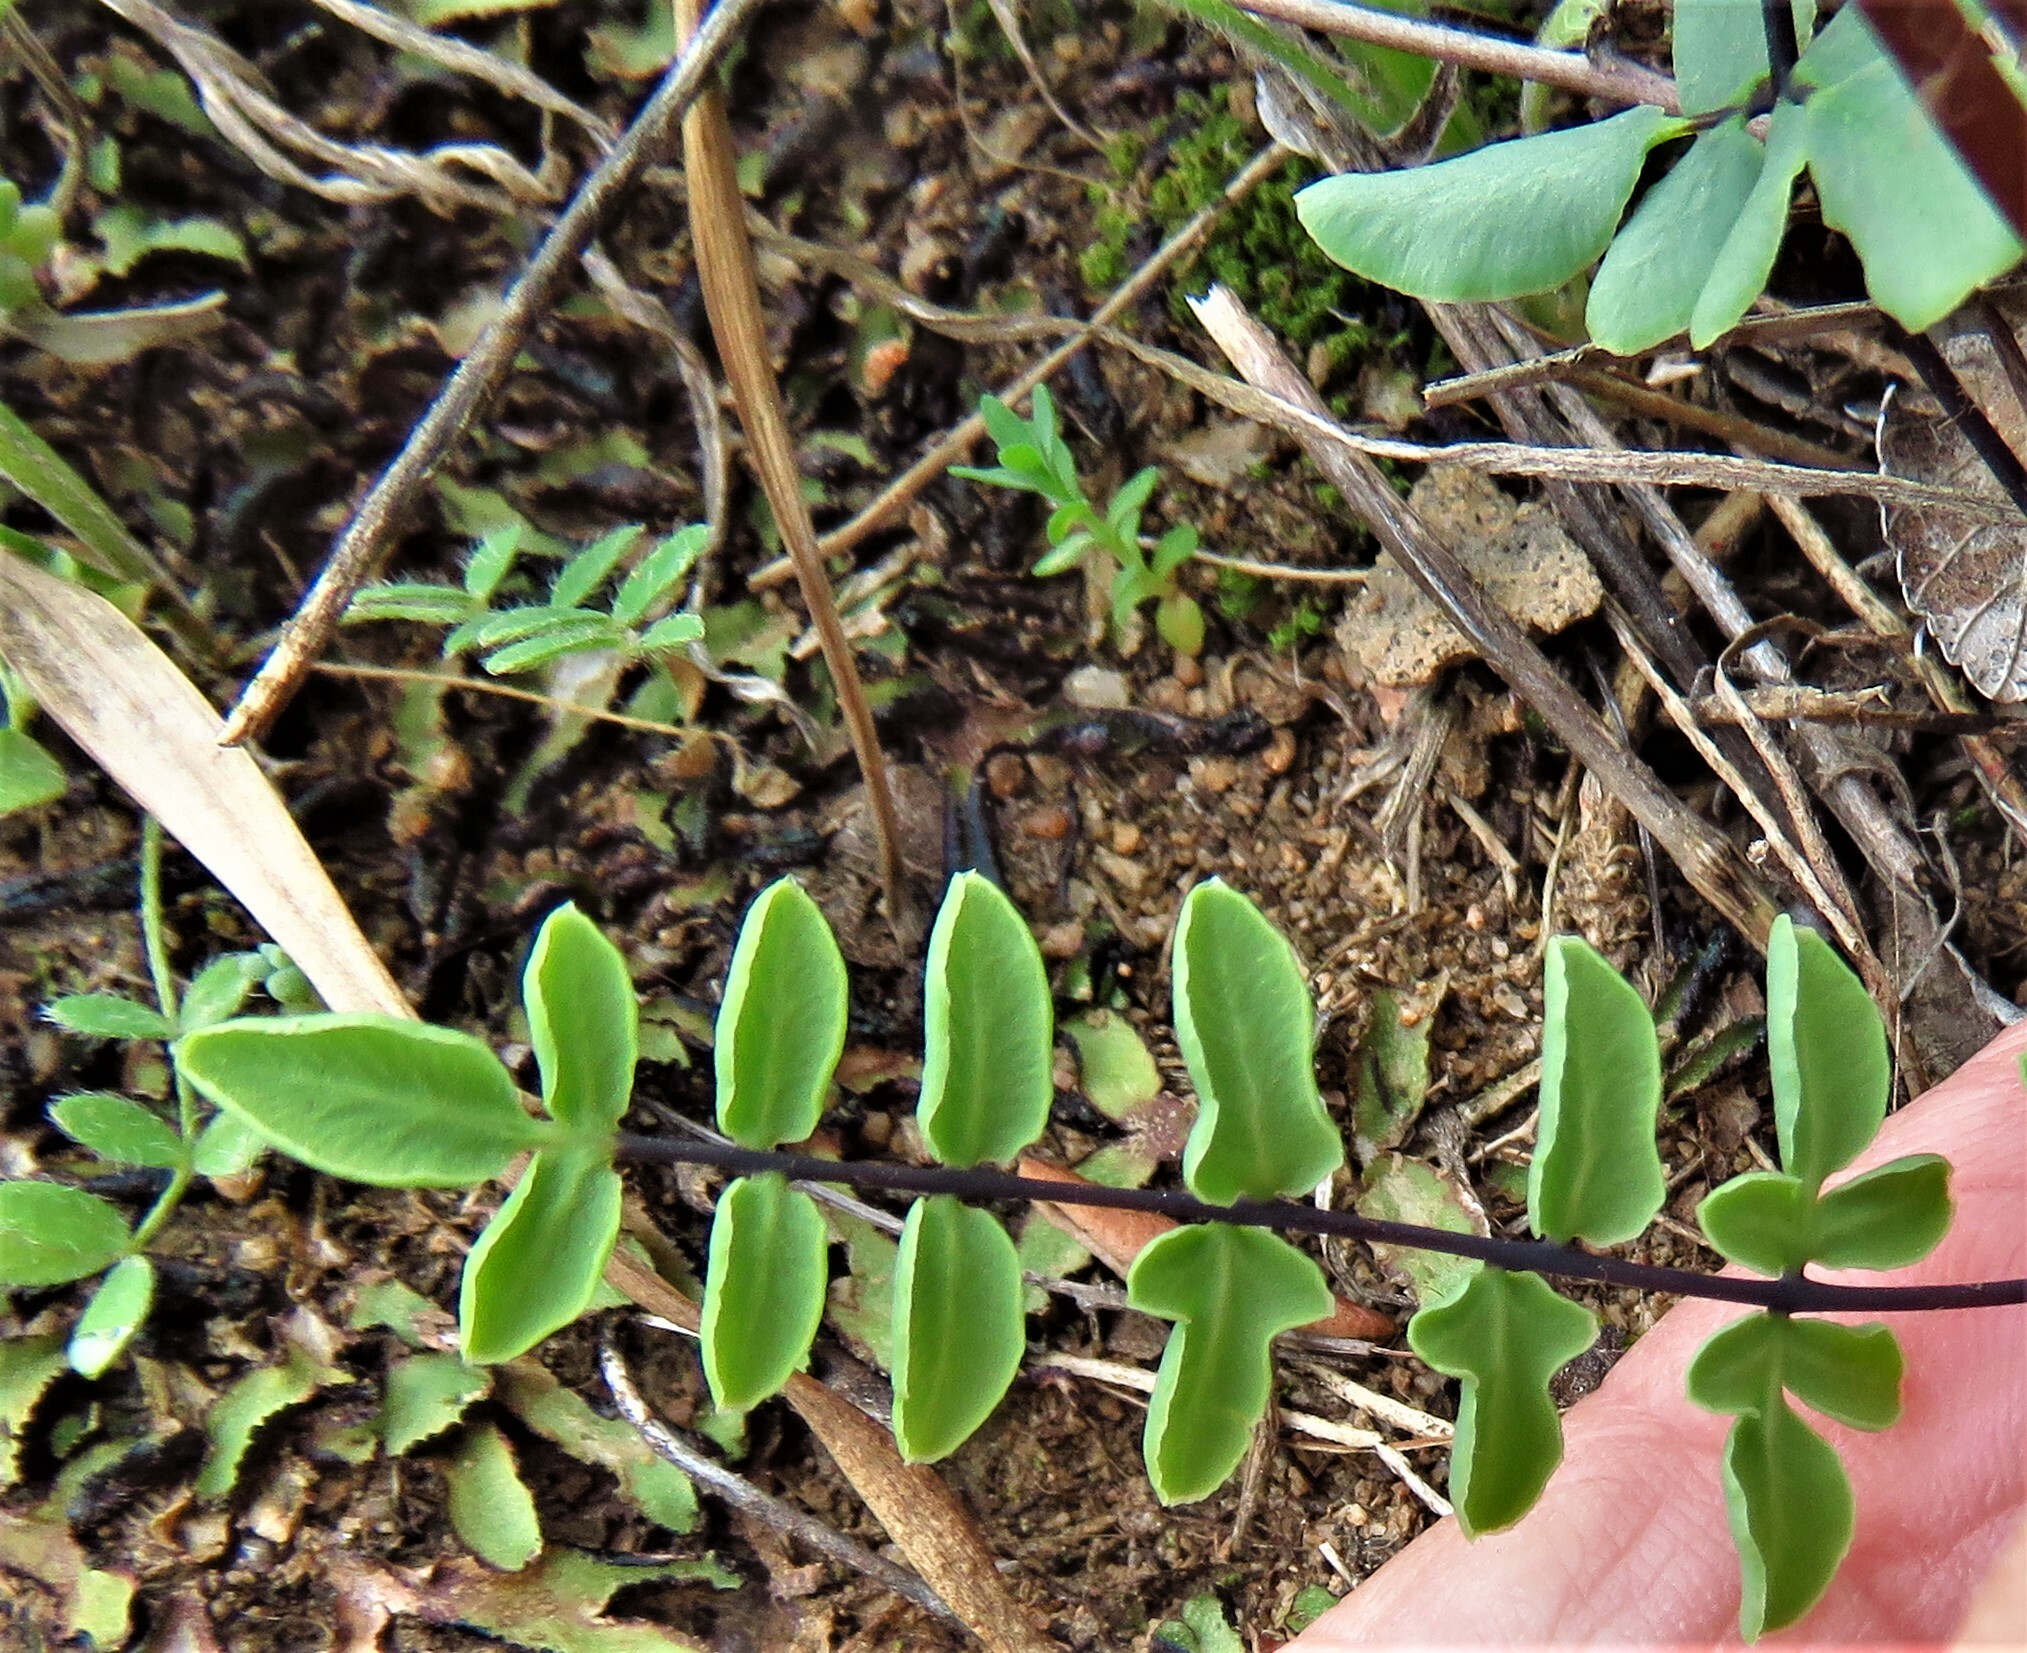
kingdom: Plantae
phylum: Tracheophyta
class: Polypodiopsida
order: Polypodiales
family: Pteridaceae
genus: Pellaea
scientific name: Pellaea wrightiana
